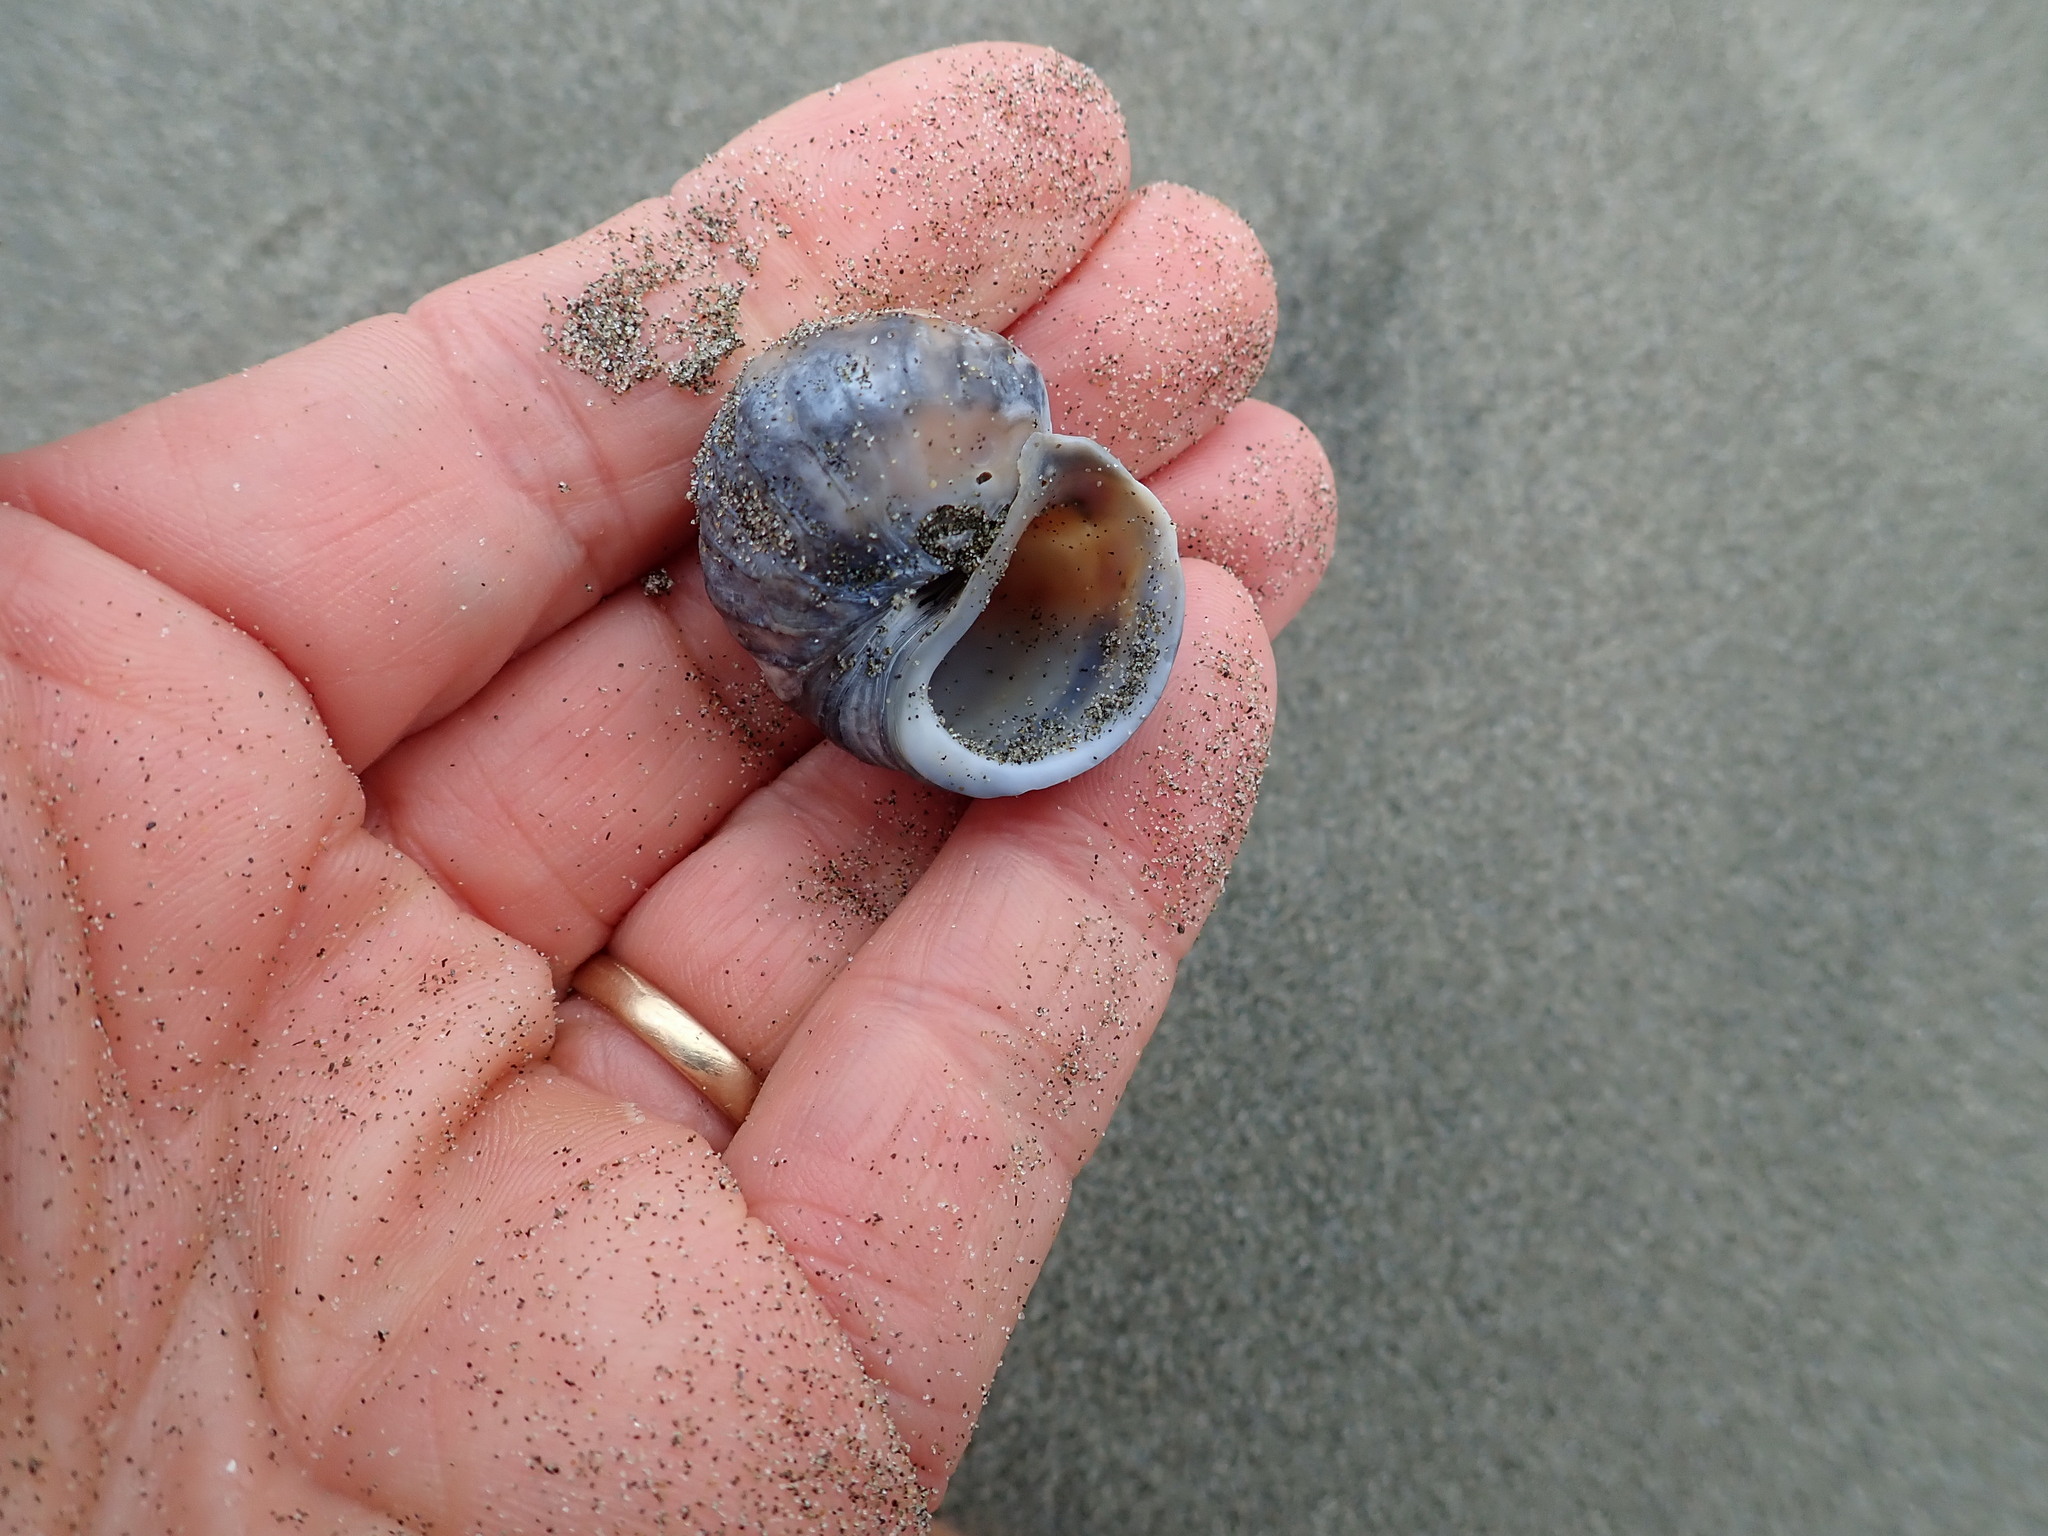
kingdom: Animalia
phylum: Mollusca
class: Gastropoda
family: Amphibolidae
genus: Amphibola
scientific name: Amphibola crenata
